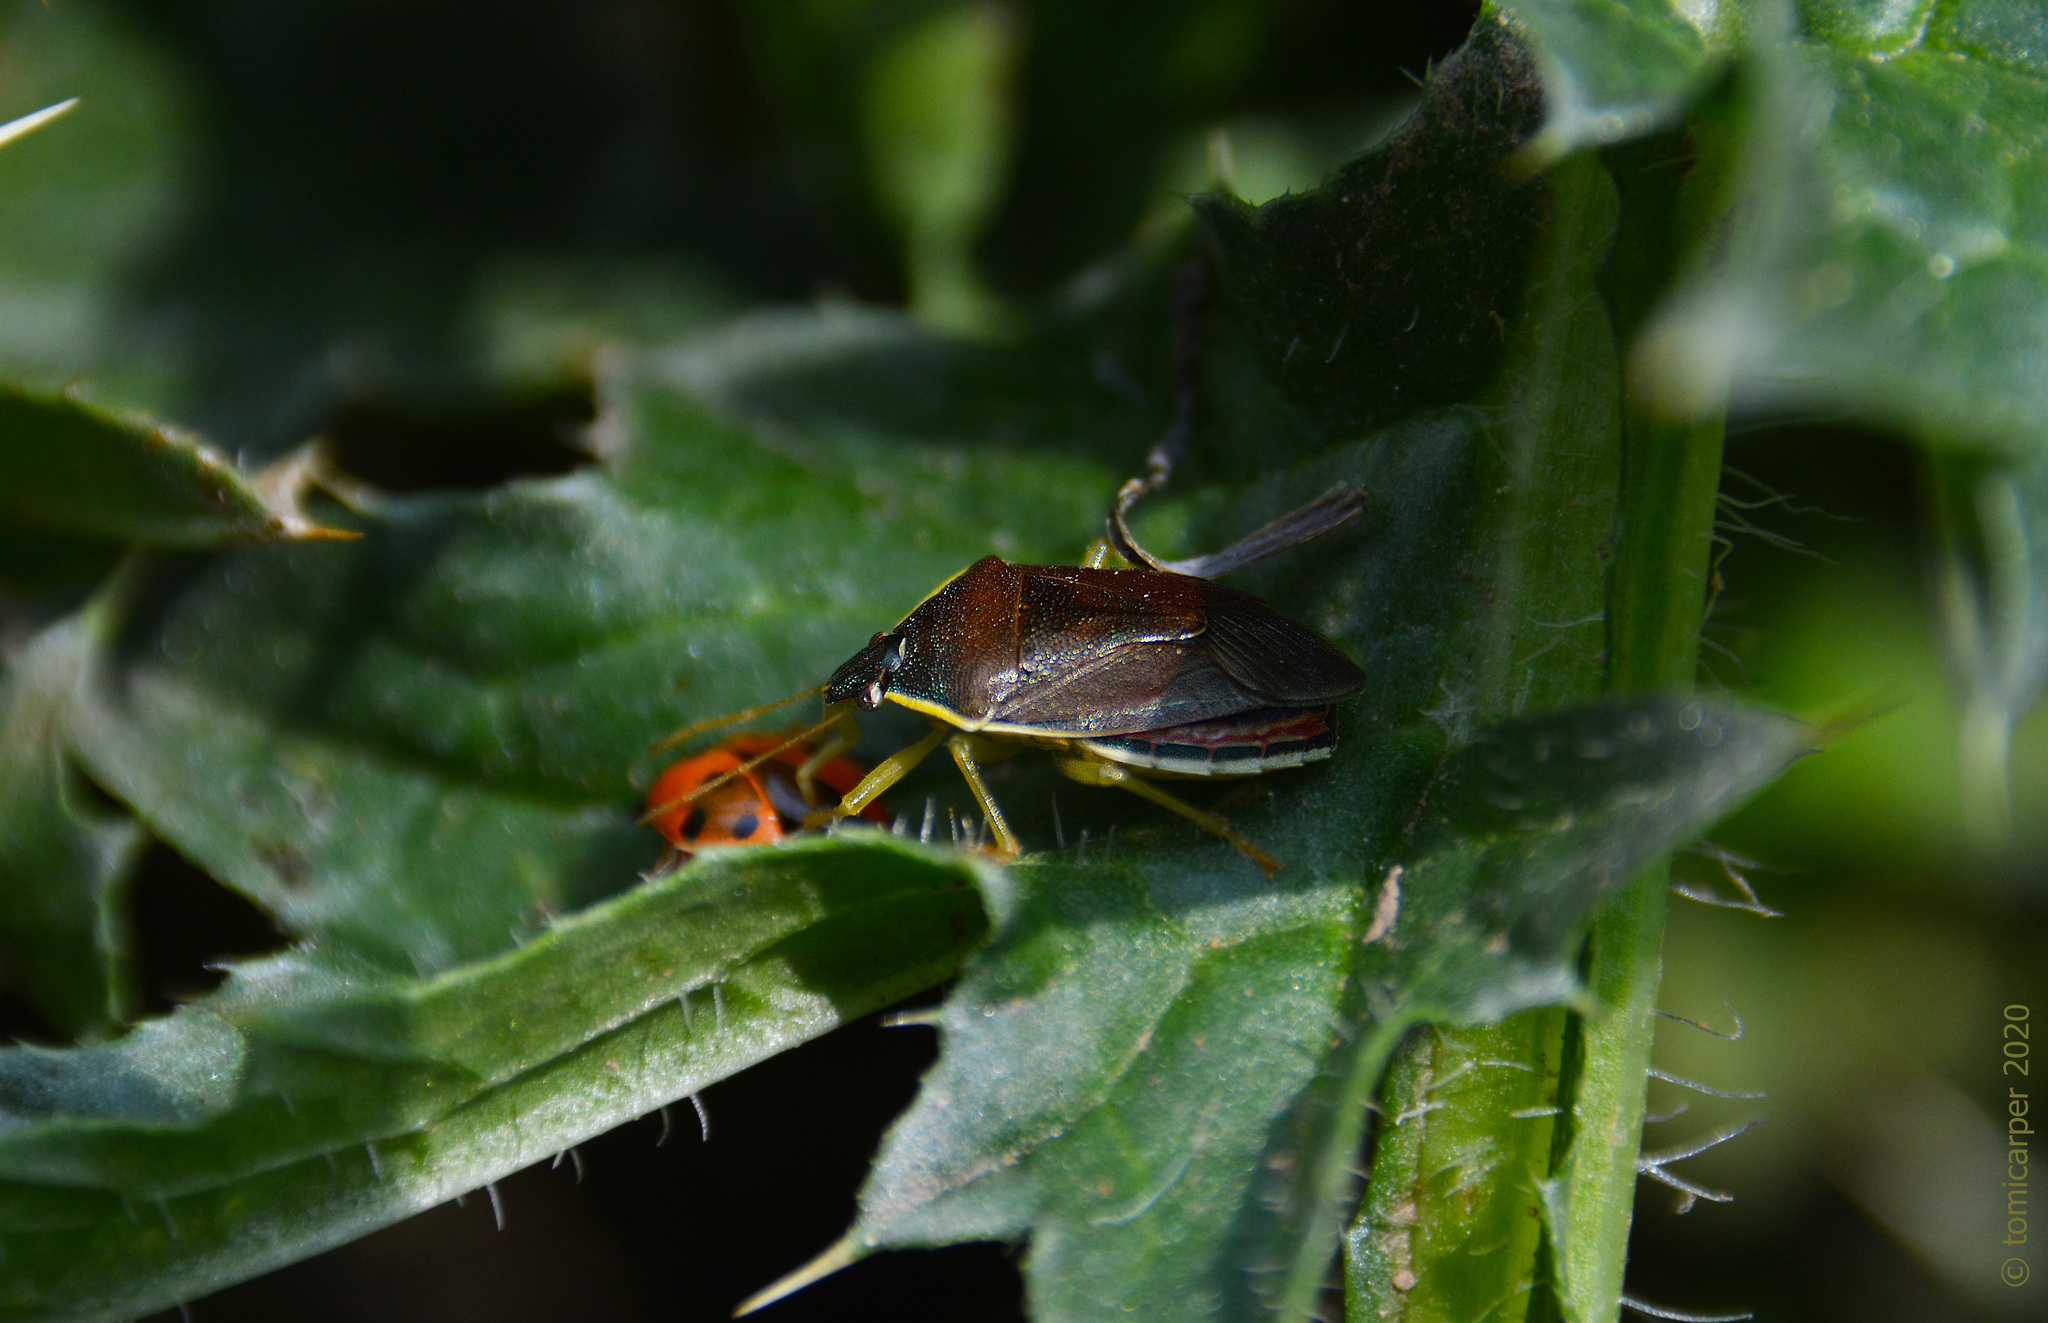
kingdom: Animalia
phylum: Arthropoda
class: Insecta
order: Hemiptera
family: Pentatomidae
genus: Tynacantha
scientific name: Tynacantha marginata
